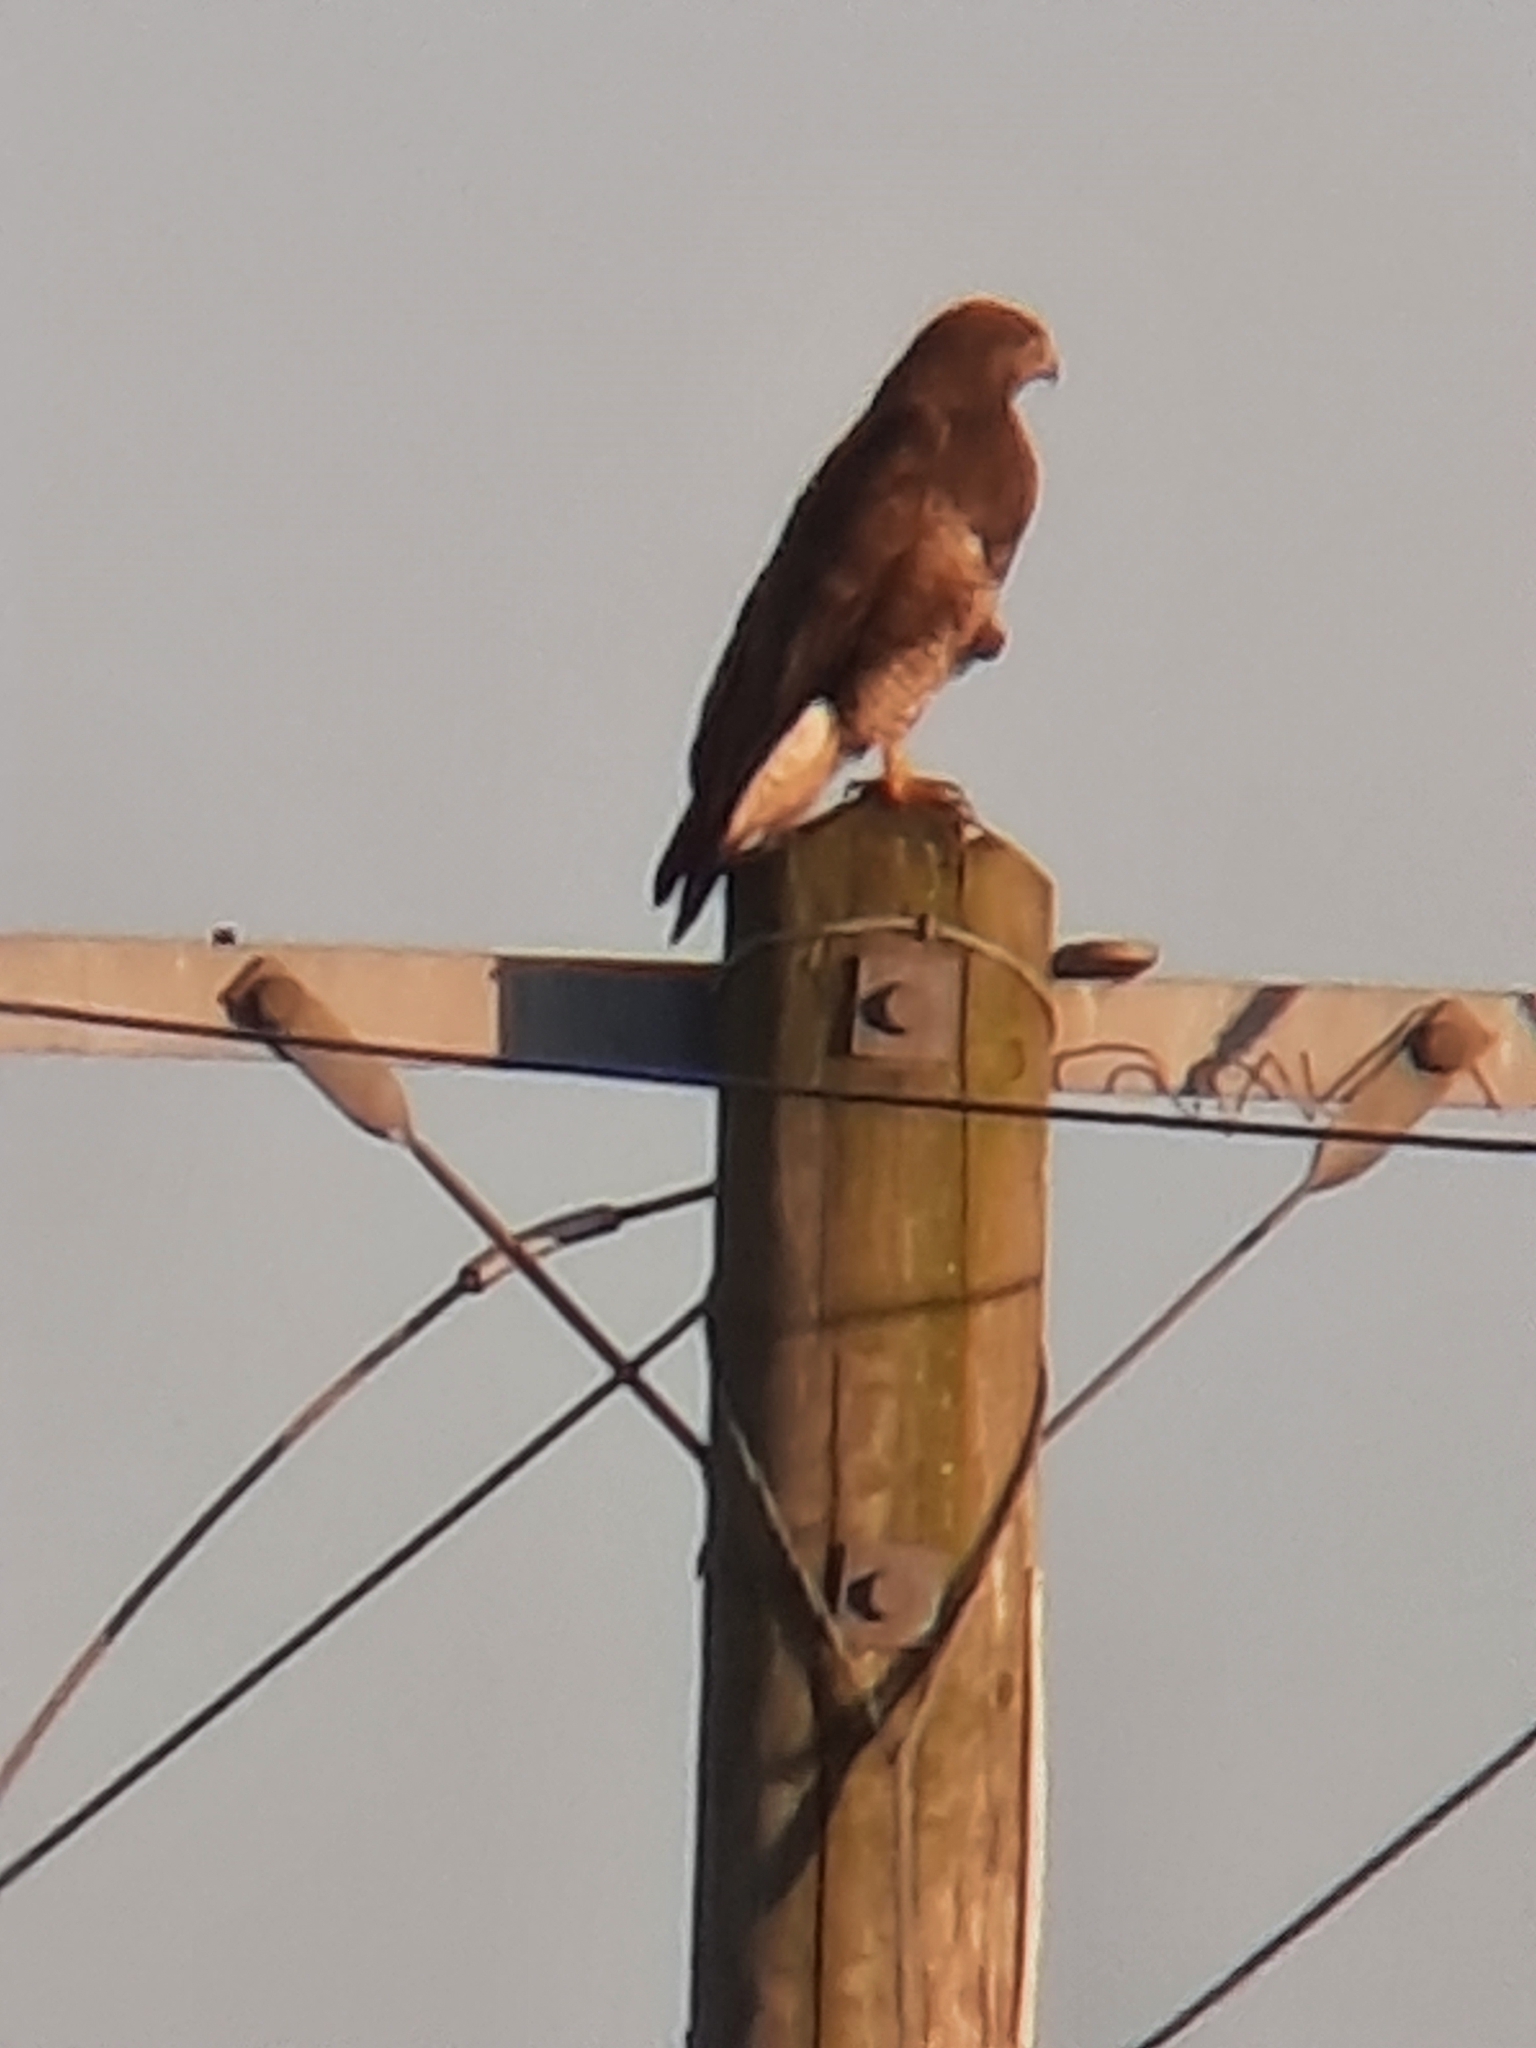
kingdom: Animalia
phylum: Chordata
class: Aves
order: Accipitriformes
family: Accipitridae
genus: Buteo
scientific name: Buteo buteo
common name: Common buzzard
